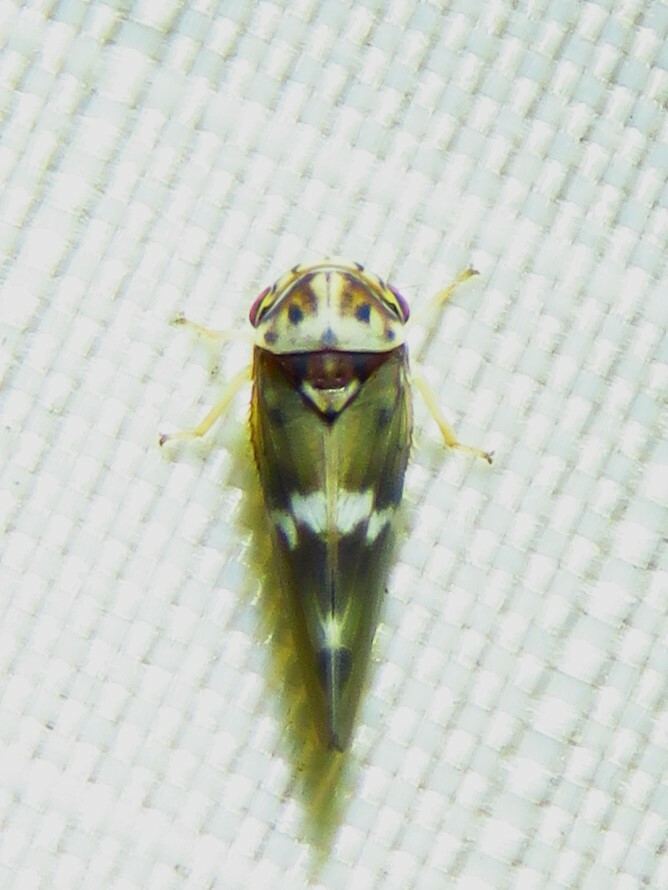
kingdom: Animalia
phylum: Arthropoda
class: Insecta
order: Hemiptera
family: Cicadellidae
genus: Agalliopsis
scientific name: Agalliopsis cervina
